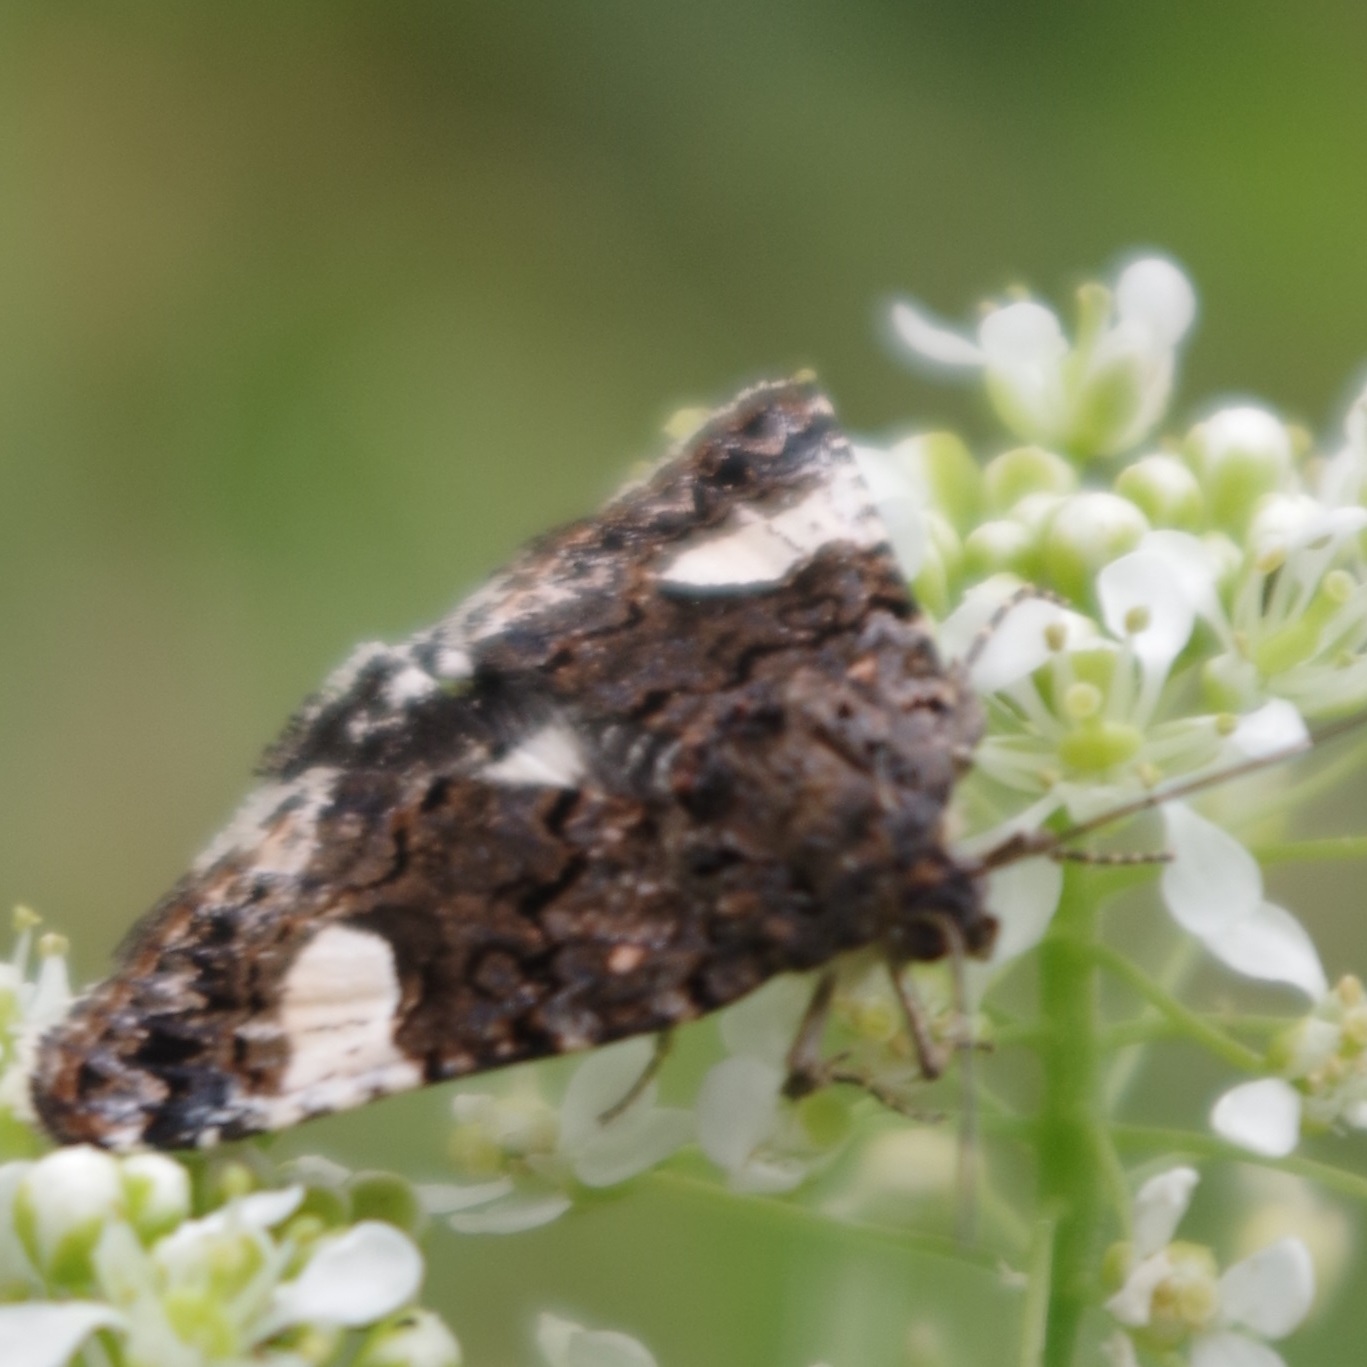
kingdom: Animalia
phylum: Arthropoda
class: Insecta
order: Lepidoptera
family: Erebidae
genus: Tyta
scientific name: Tyta luctuosa
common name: Four-spotted
